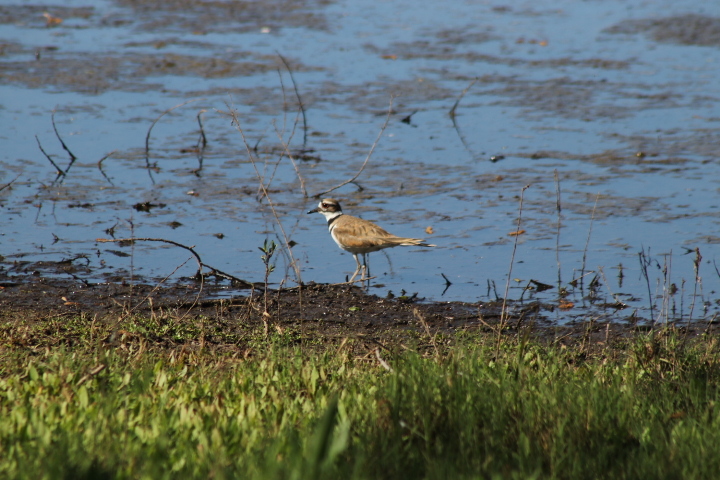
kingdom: Animalia
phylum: Chordata
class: Aves
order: Charadriiformes
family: Charadriidae
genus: Charadrius
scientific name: Charadrius vociferus
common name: Killdeer
